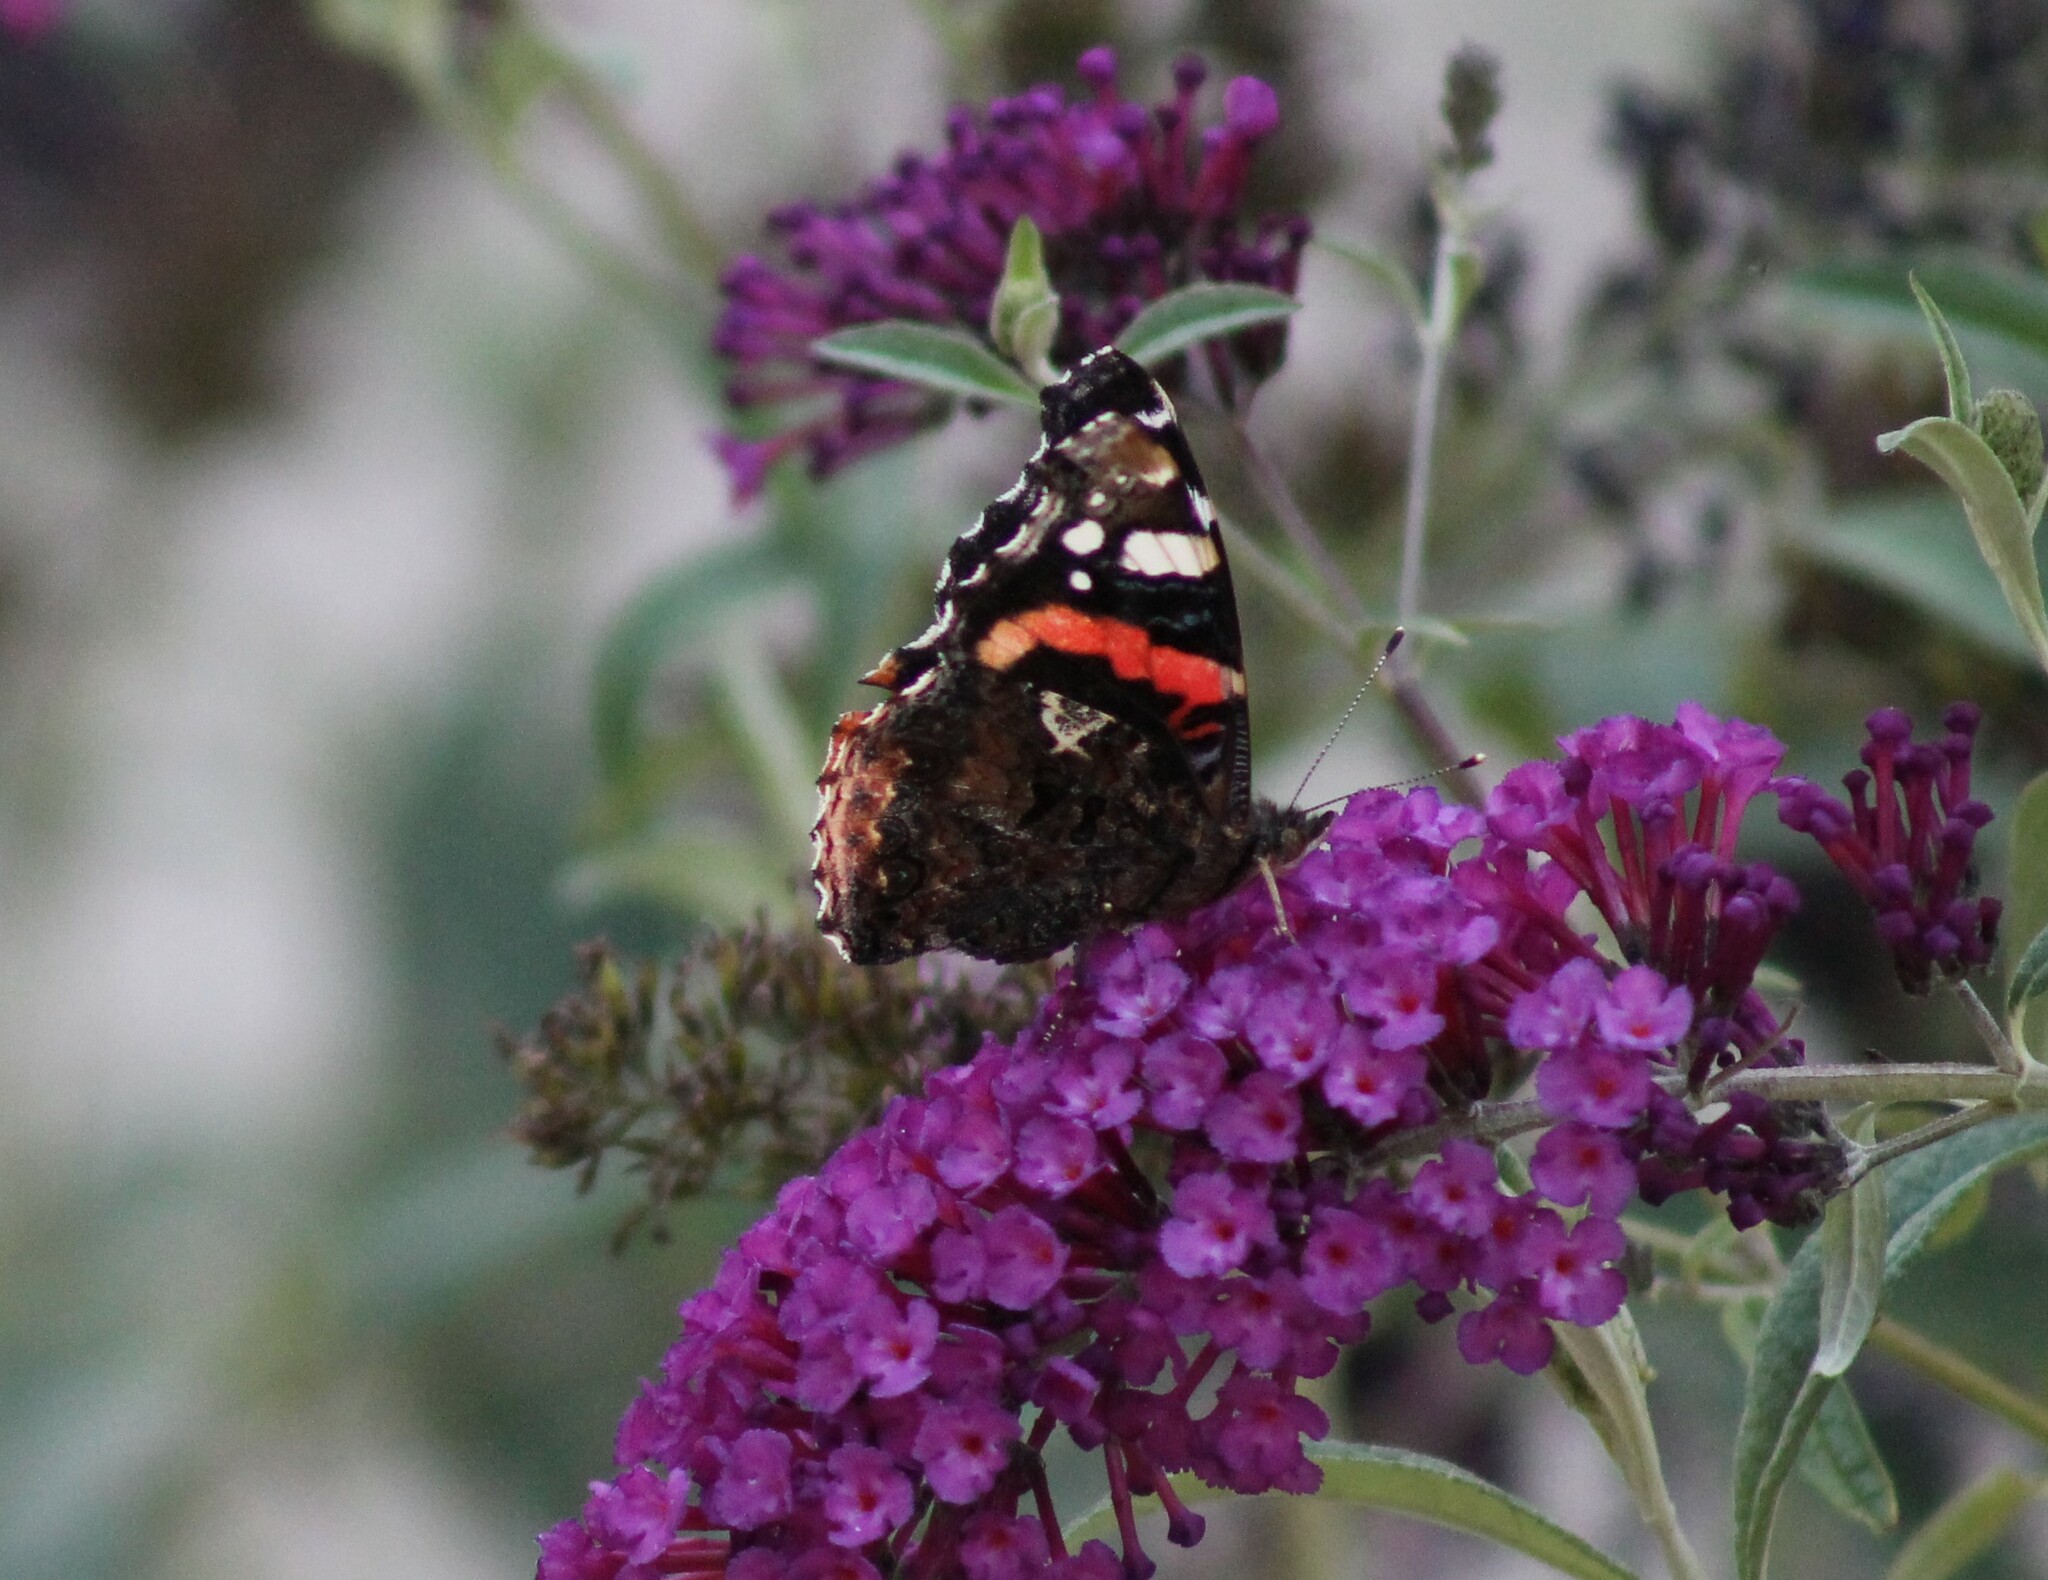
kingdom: Animalia
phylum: Arthropoda
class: Insecta
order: Lepidoptera
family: Nymphalidae
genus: Vanessa
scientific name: Vanessa atalanta
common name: Red admiral
